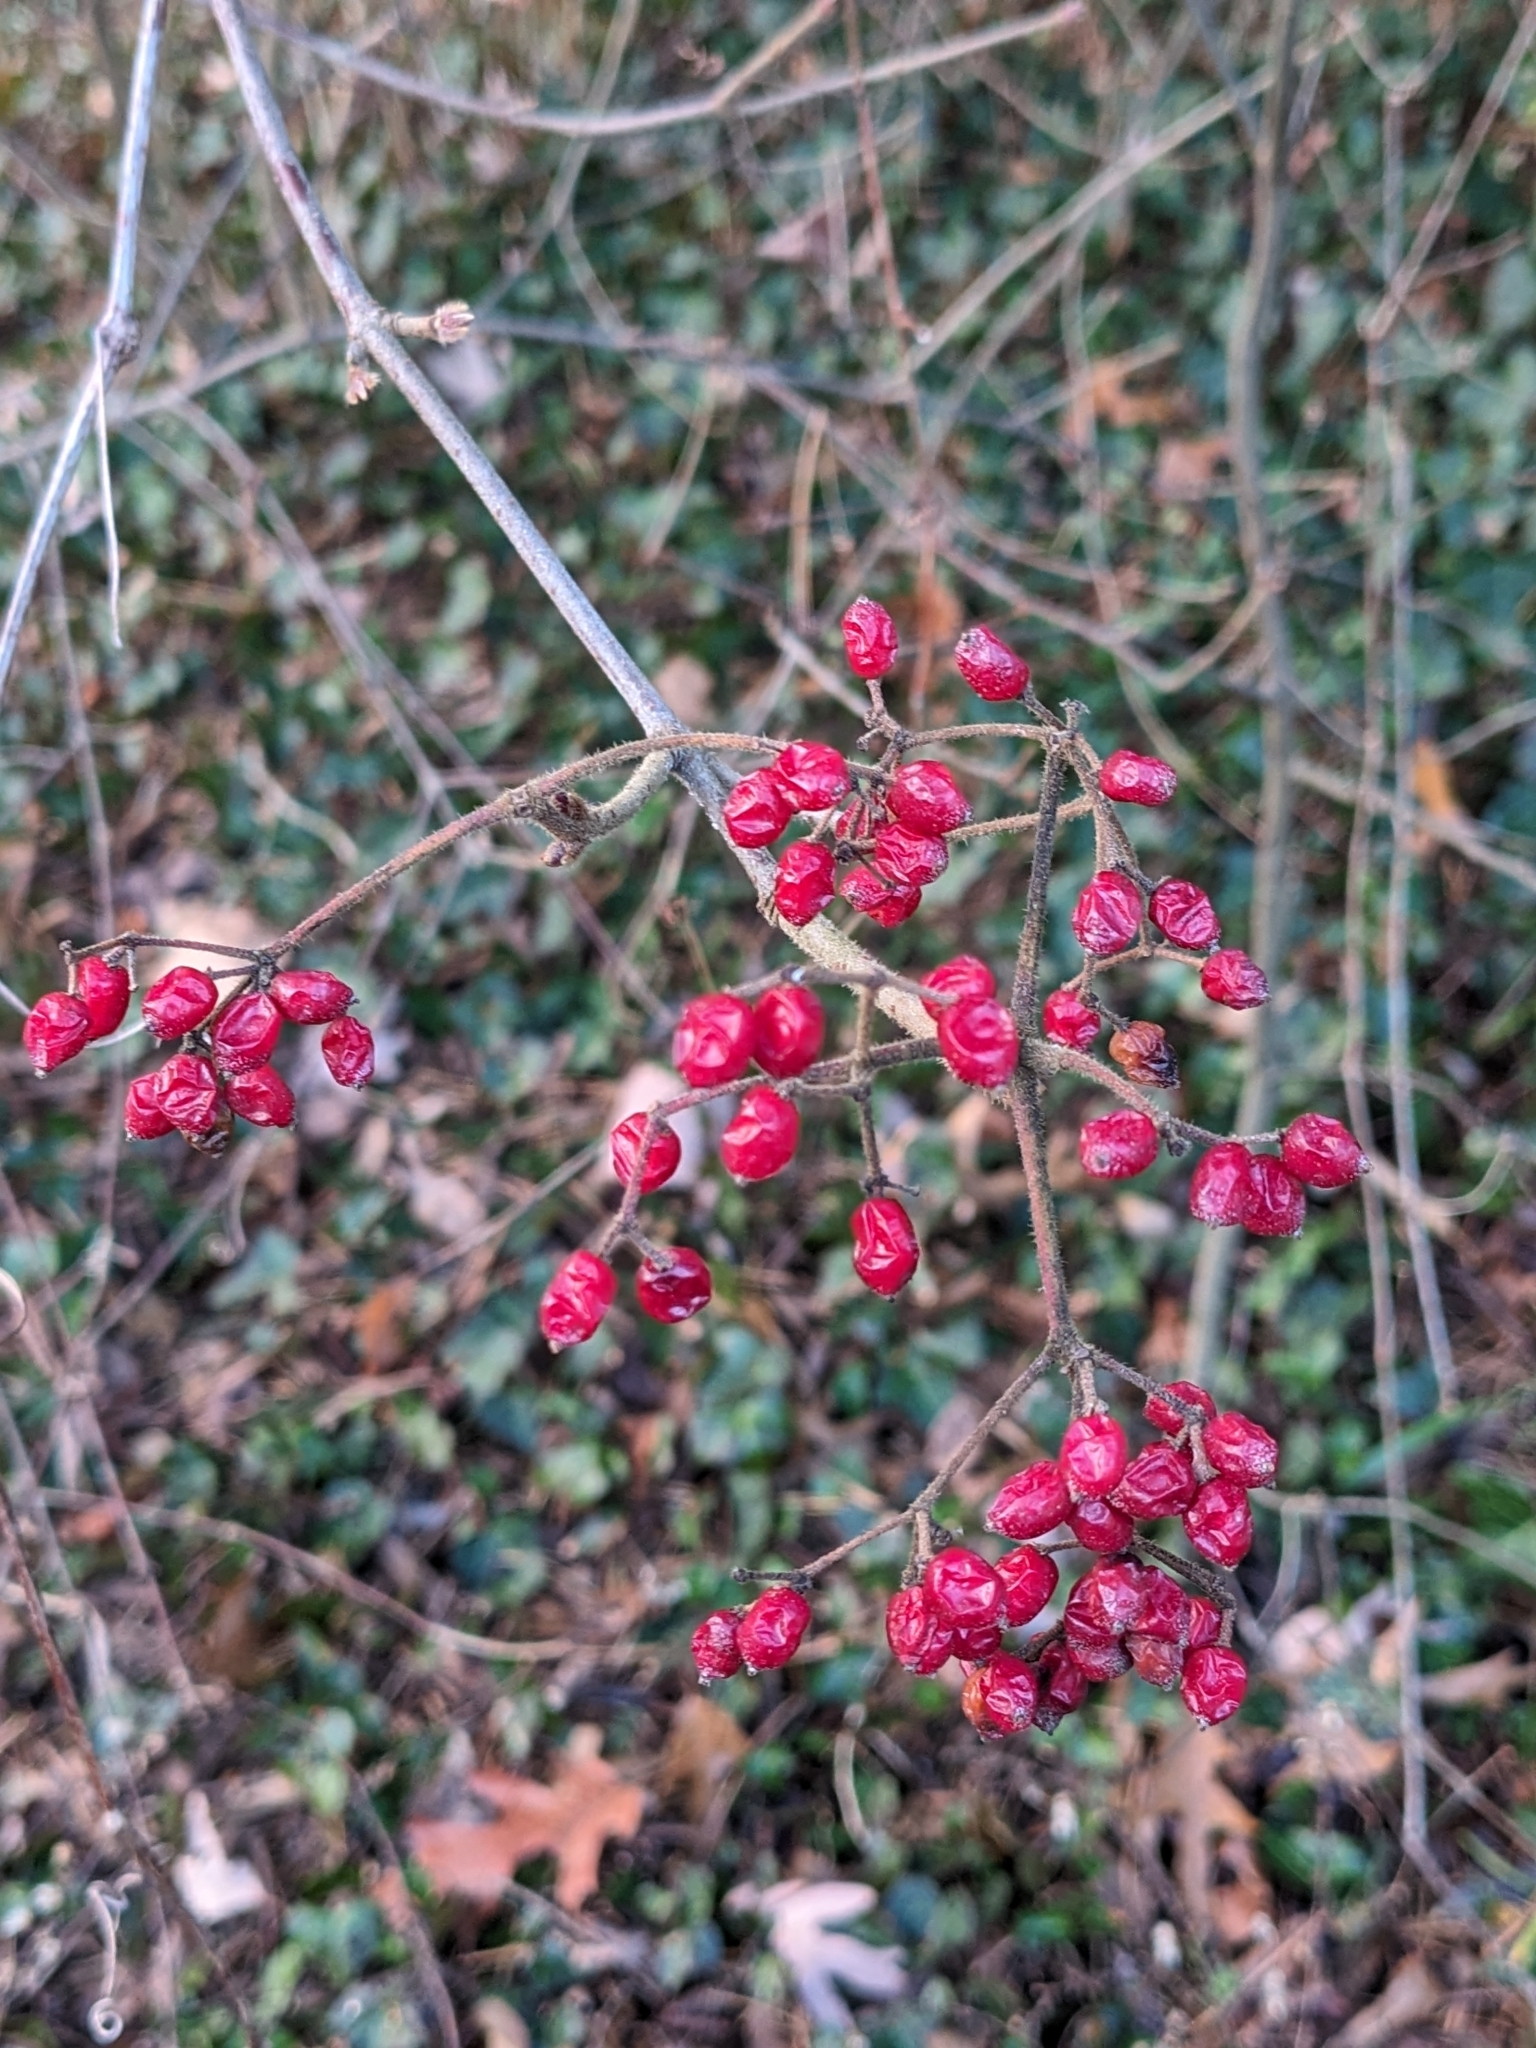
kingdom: Plantae
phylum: Tracheophyta
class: Magnoliopsida
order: Dipsacales
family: Viburnaceae
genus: Viburnum
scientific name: Viburnum dilatatum
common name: Linden arrowwood
